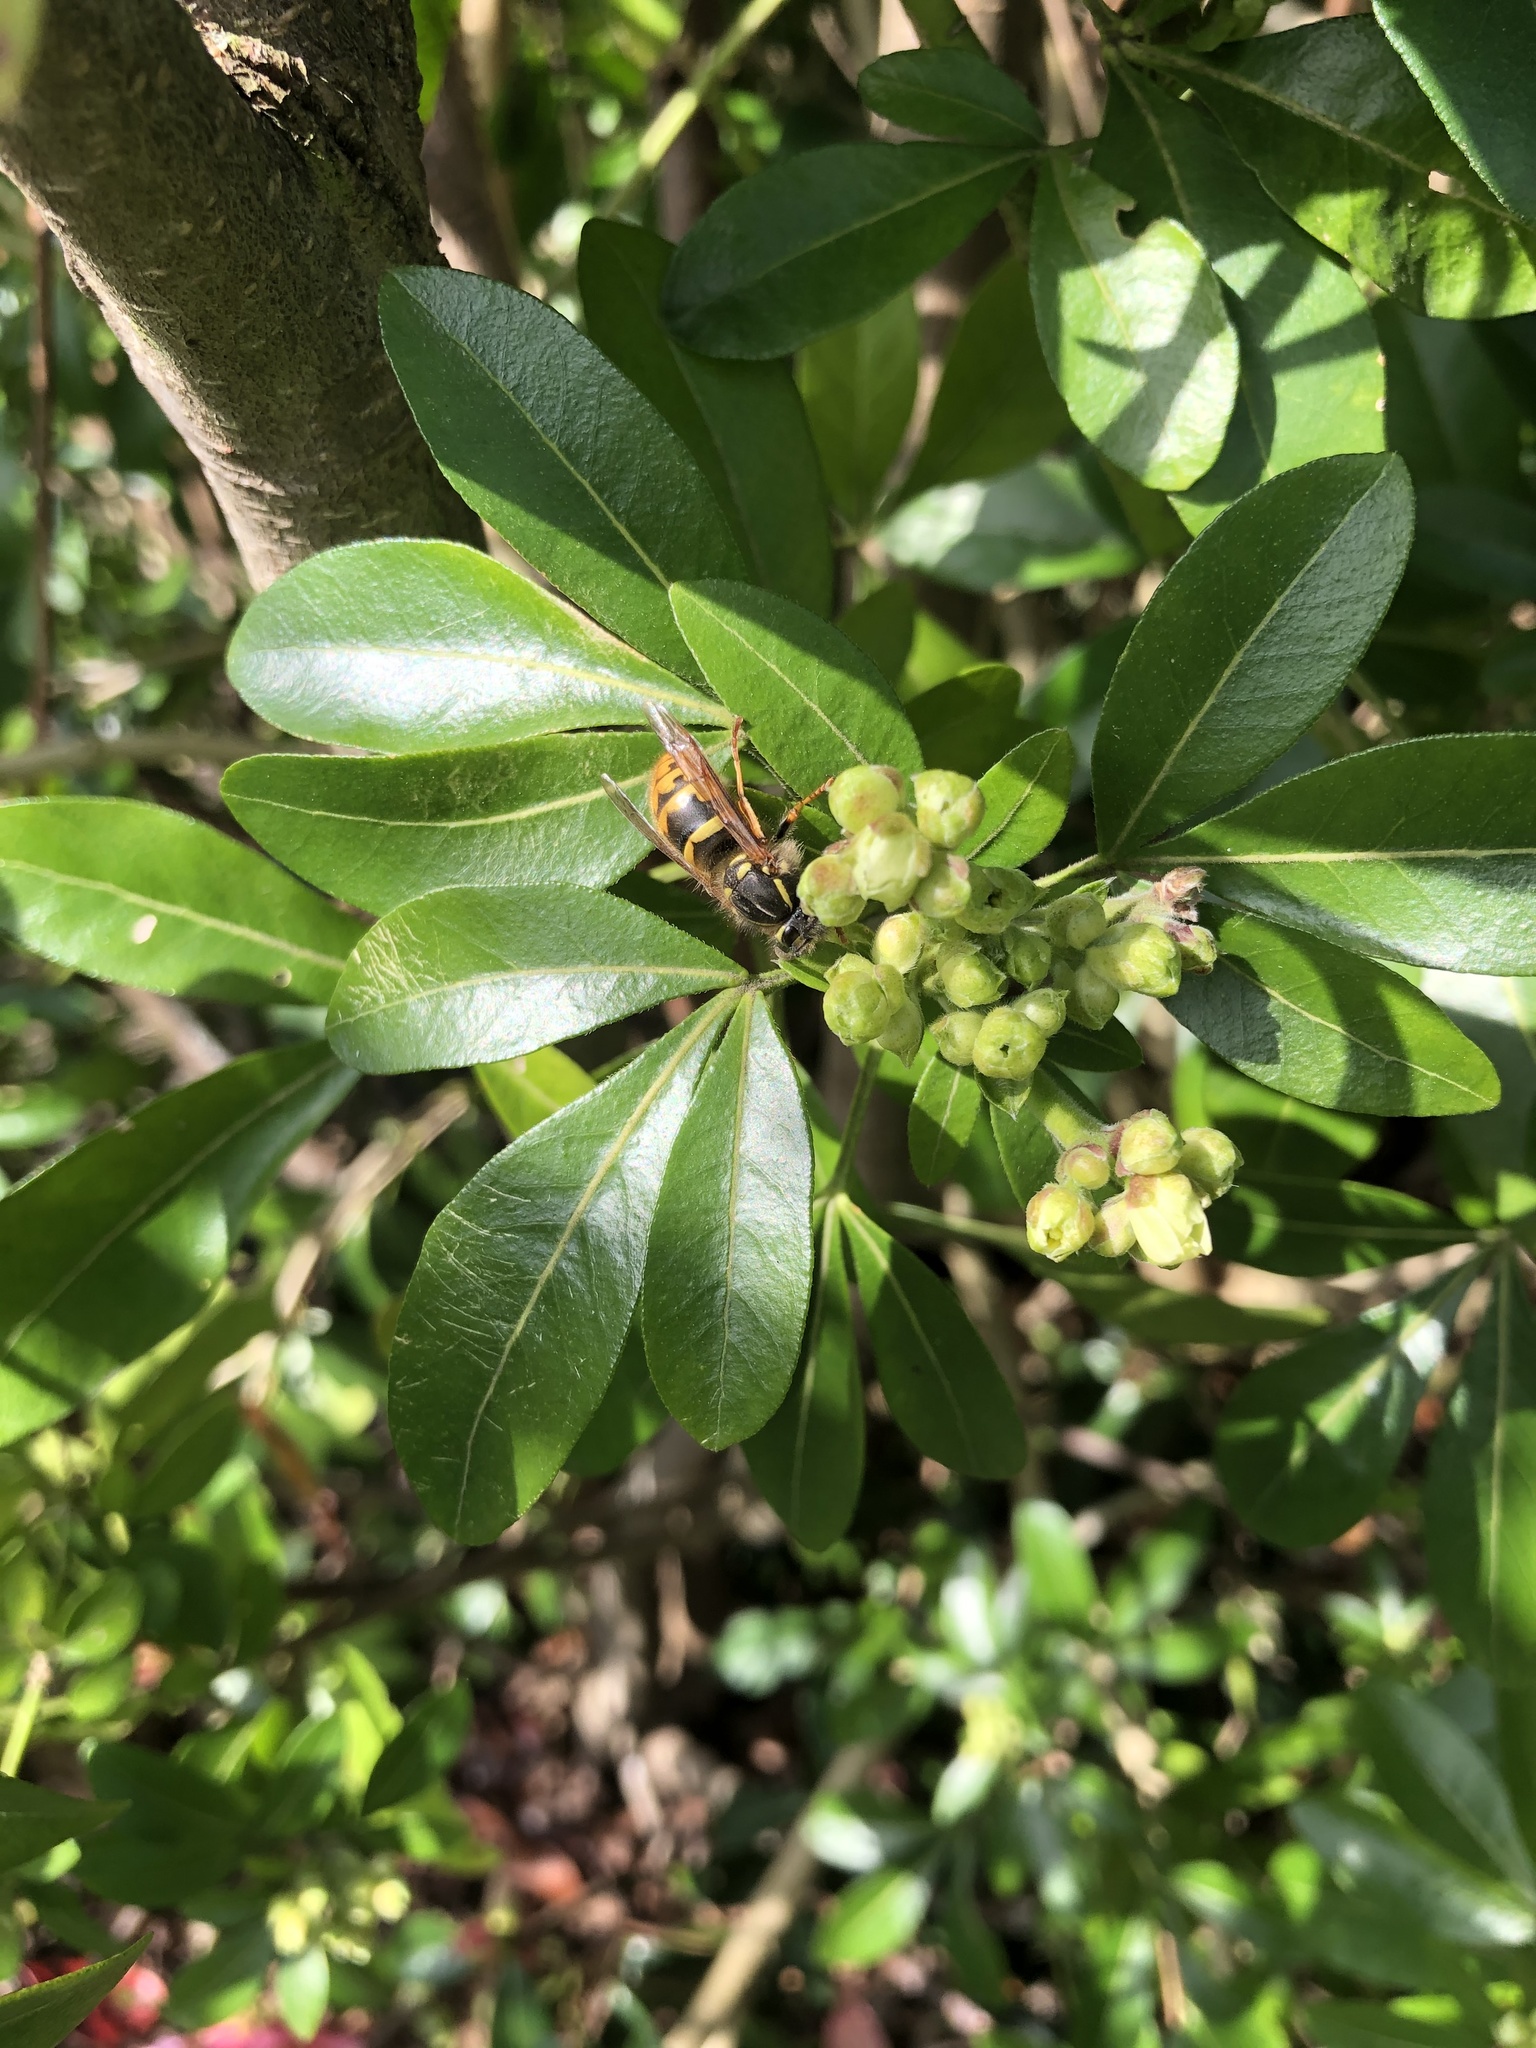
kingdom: Animalia
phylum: Arthropoda
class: Insecta
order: Hymenoptera
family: Vespidae
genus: Vespula
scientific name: Vespula vulgaris
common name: Common wasp
